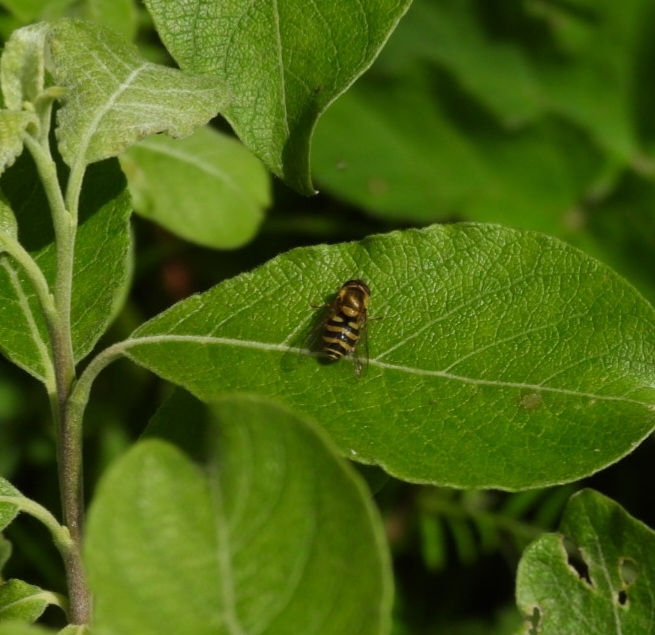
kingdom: Animalia
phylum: Arthropoda
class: Insecta
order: Diptera
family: Syrphidae
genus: Syrphus
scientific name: Syrphus
